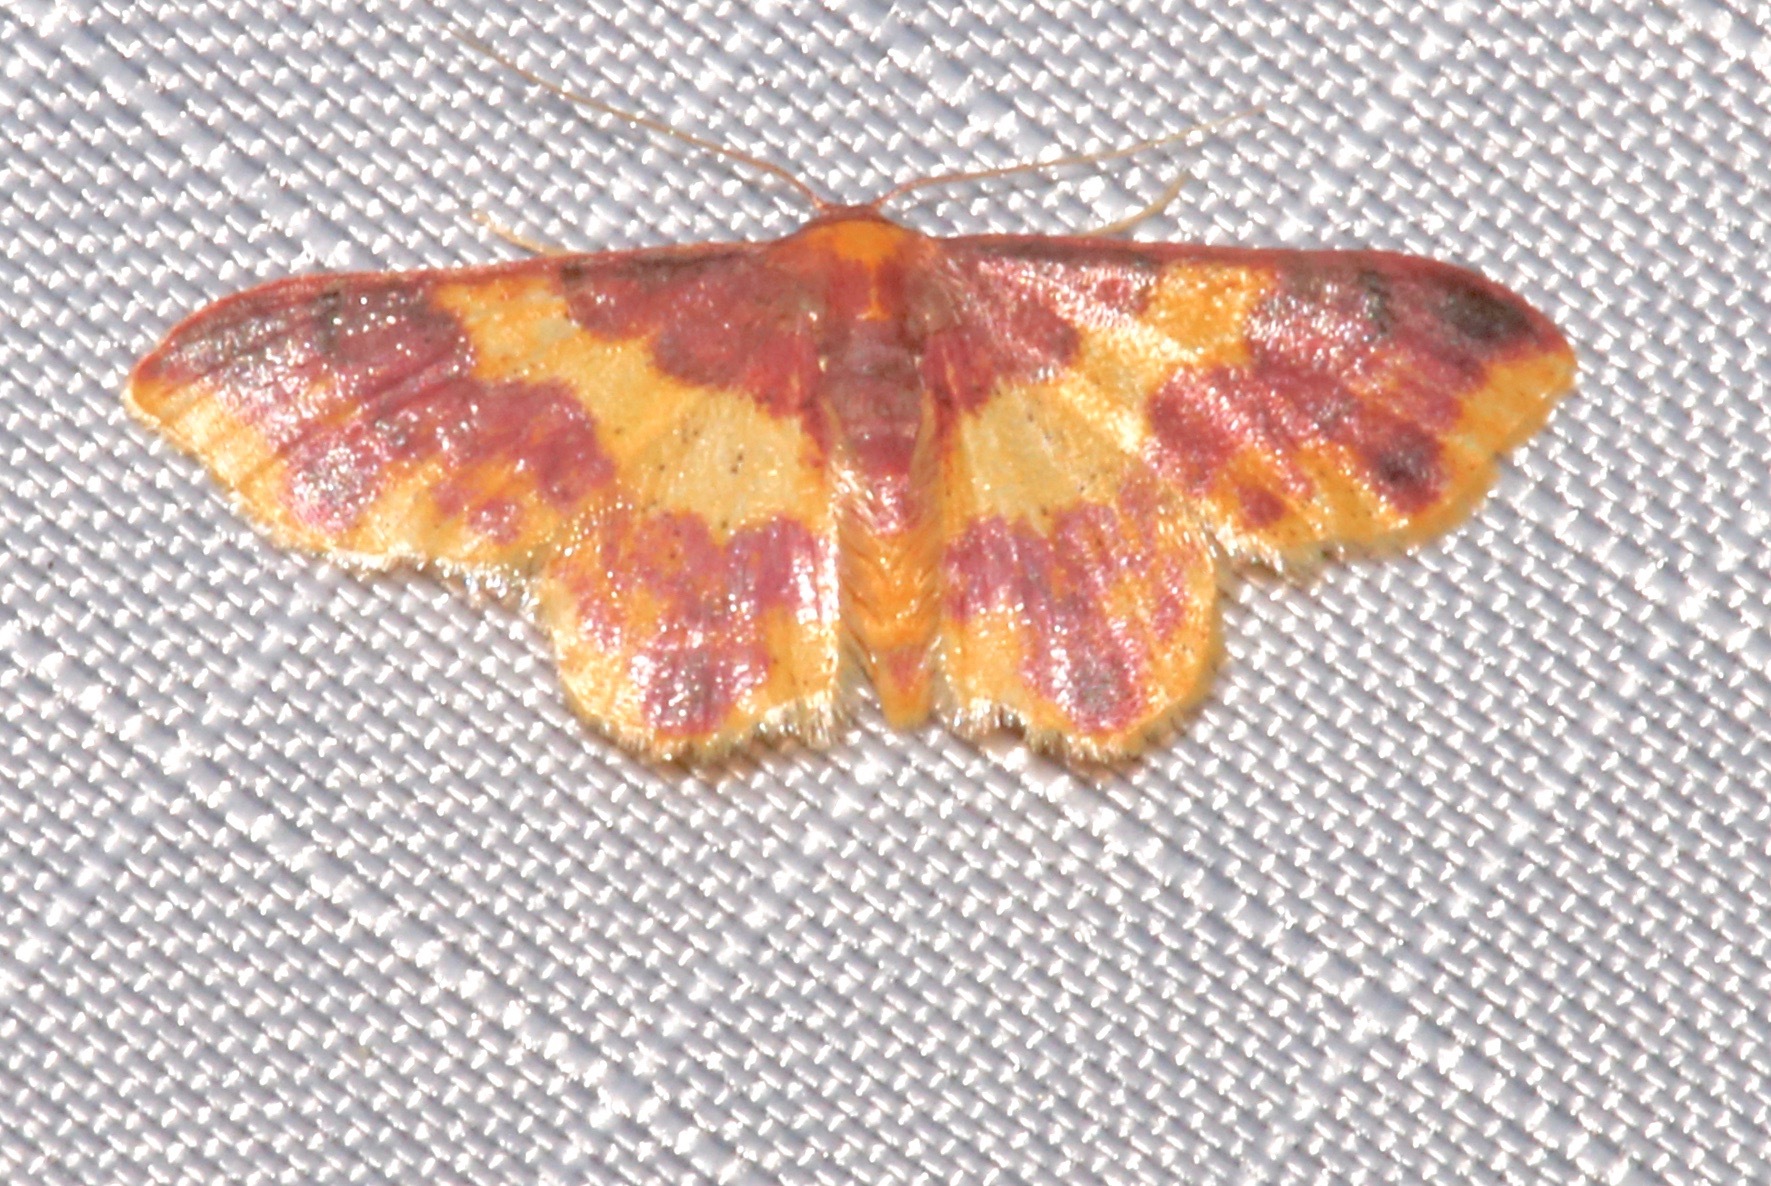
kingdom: Animalia
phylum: Arthropoda
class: Insecta
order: Lepidoptera
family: Geometridae
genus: Lophosis
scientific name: Lophosis labeculata
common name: Stained lophosis moth
